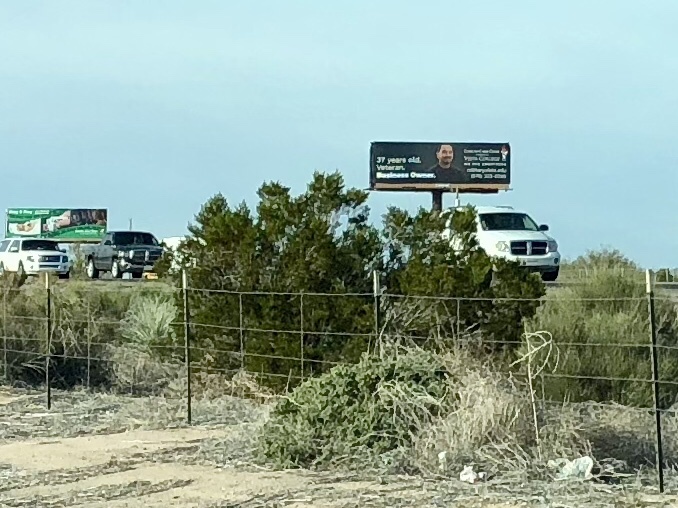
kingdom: Plantae
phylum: Tracheophyta
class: Magnoliopsida
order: Zygophyllales
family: Zygophyllaceae
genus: Larrea
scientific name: Larrea tridentata
